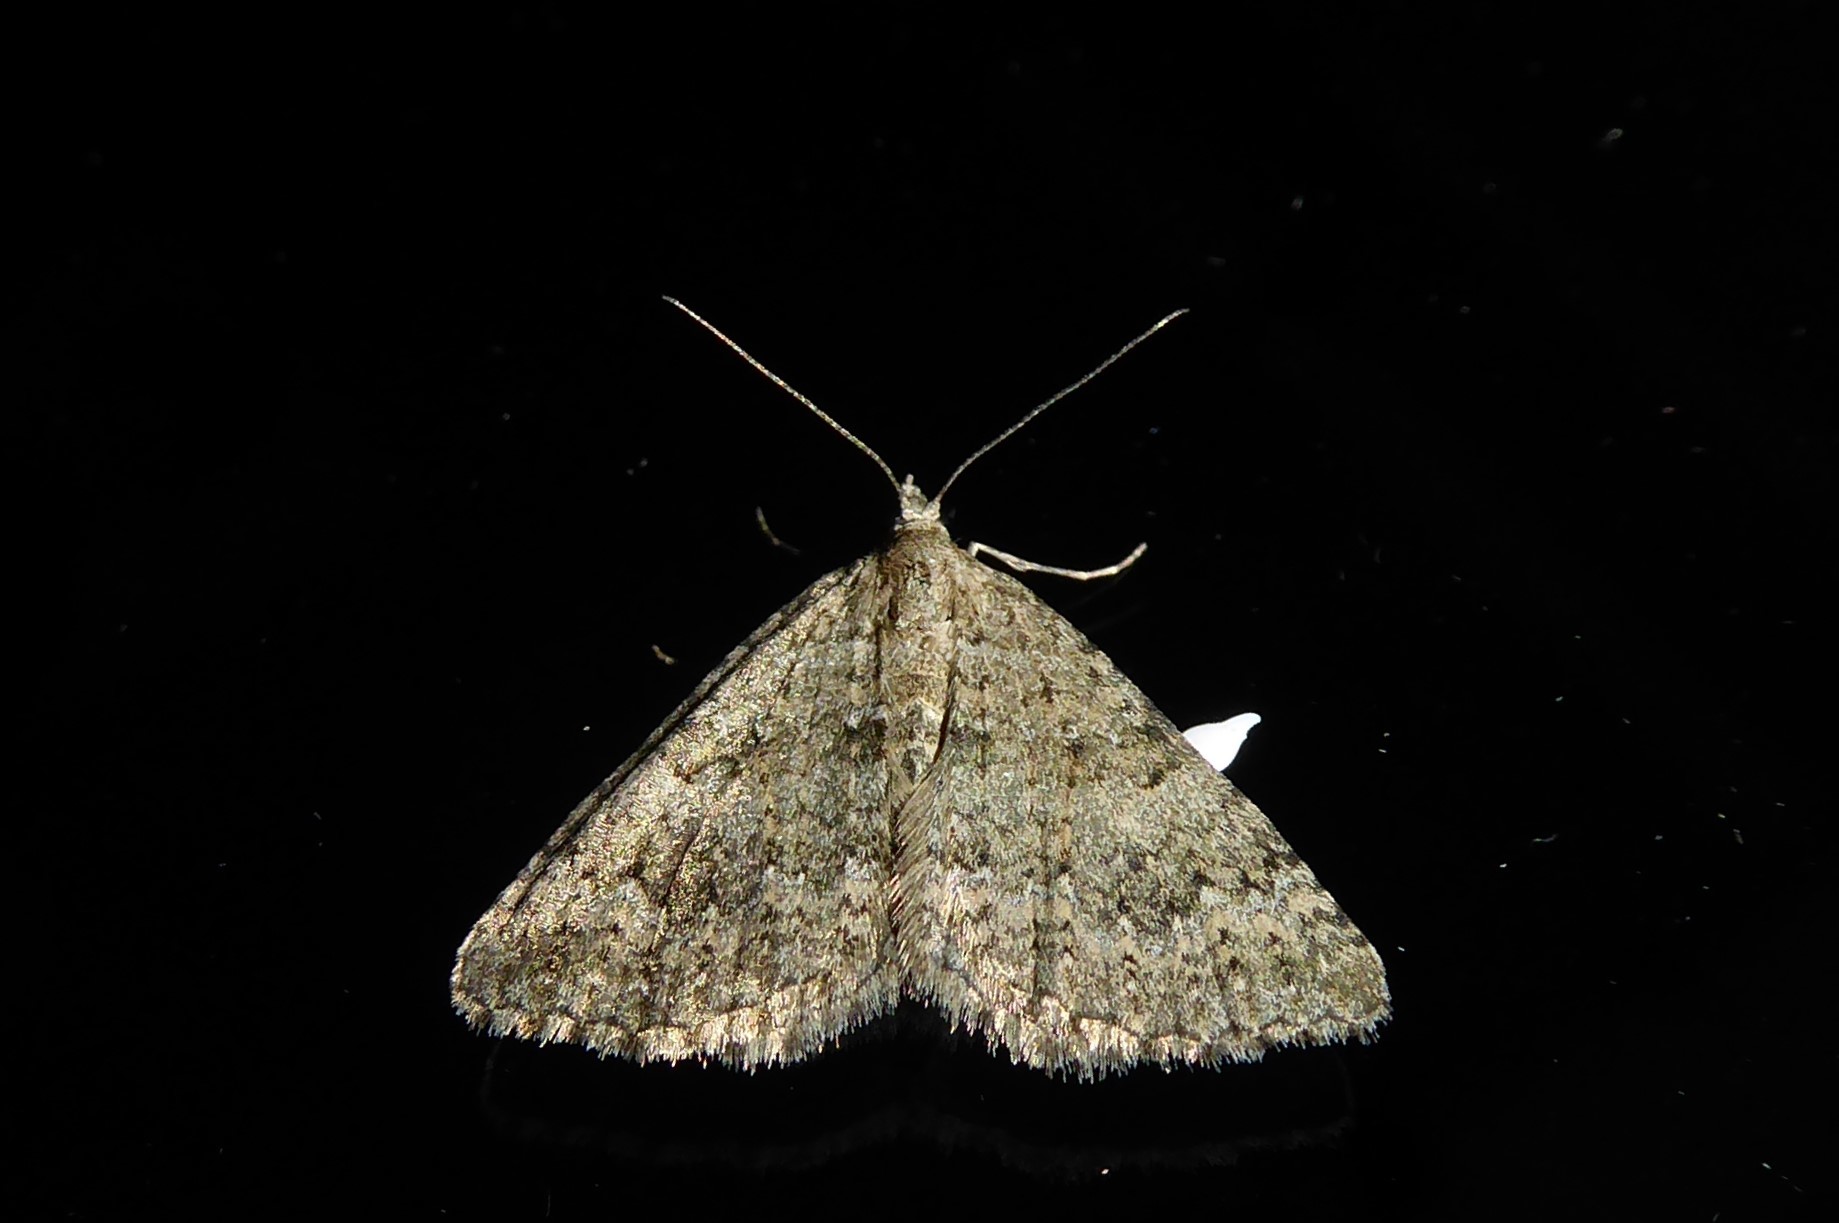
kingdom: Animalia
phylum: Arthropoda
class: Insecta
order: Lepidoptera
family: Geometridae
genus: Helastia
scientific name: Helastia corcularia
